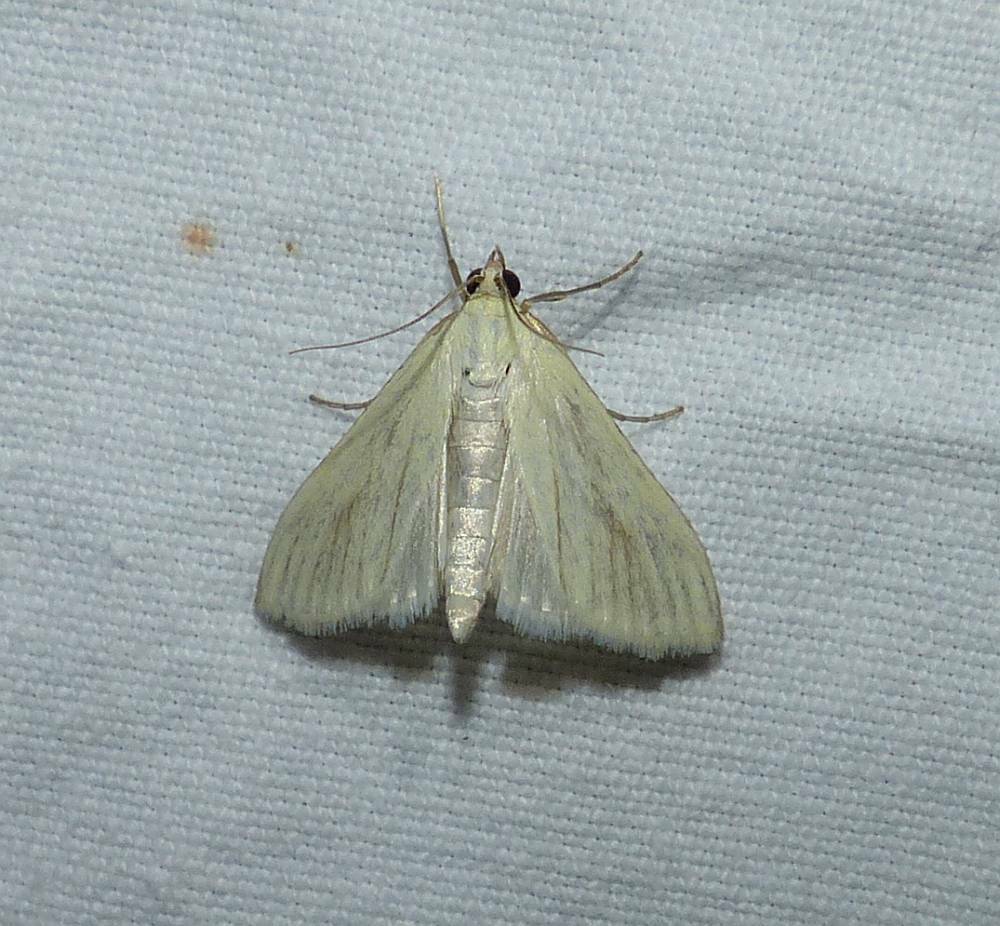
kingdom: Animalia
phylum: Arthropoda
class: Insecta
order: Lepidoptera
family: Crambidae
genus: Sitochroa
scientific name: Sitochroa palealis
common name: Greenish-yellow sitochroa moth
